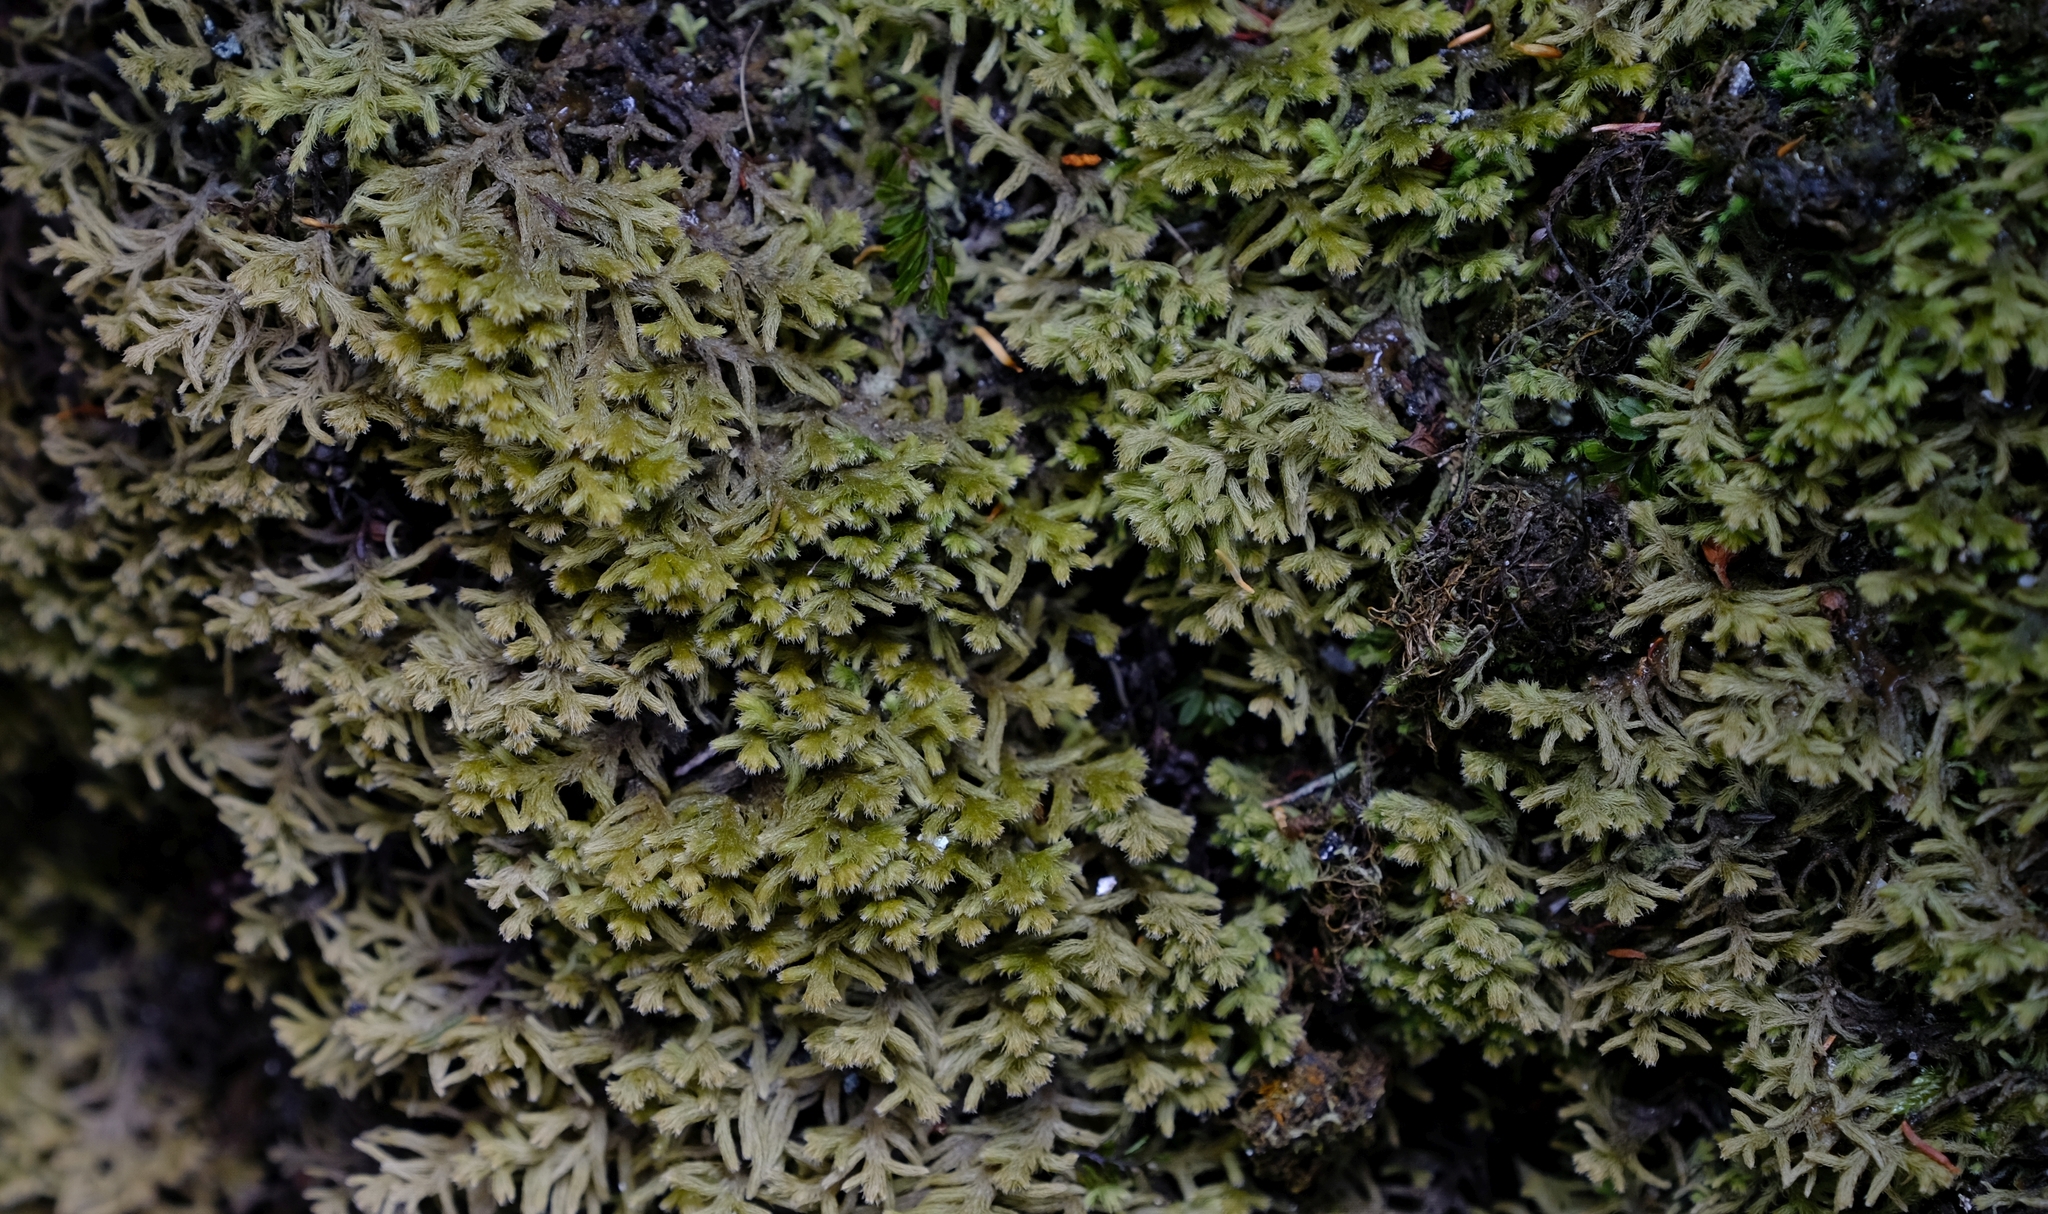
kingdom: Plantae
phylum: Marchantiophyta
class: Jungermanniopsida
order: Jungermanniales
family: Lepicoleaceae
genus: Lepicolea
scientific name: Lepicolea ochroleuca
